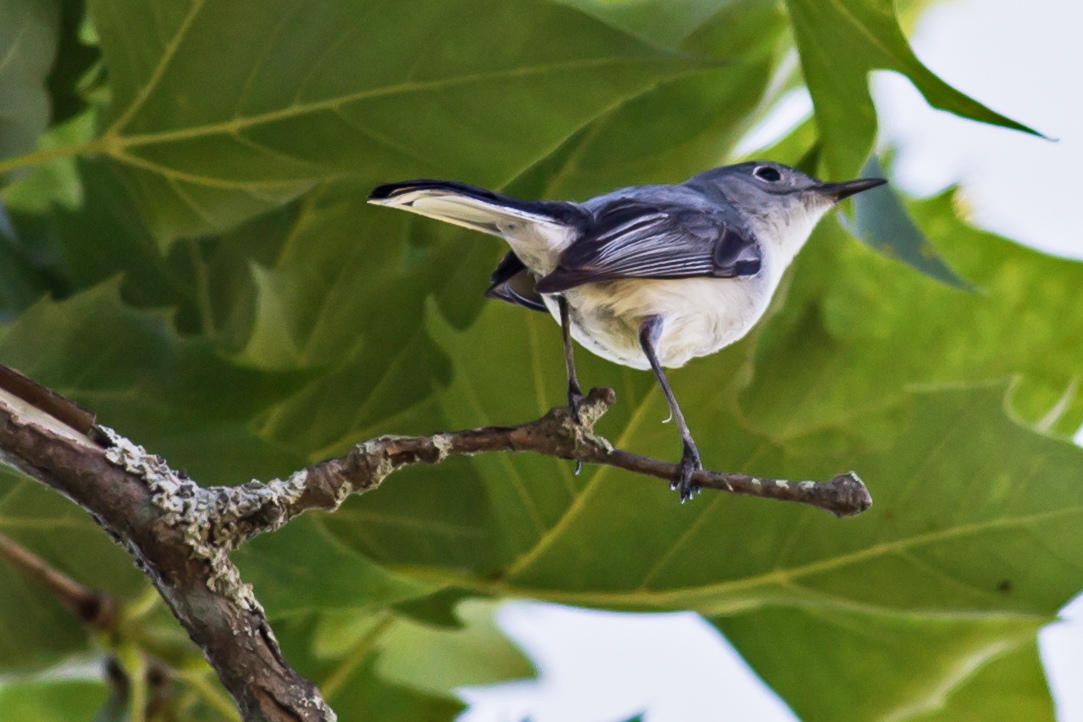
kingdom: Animalia
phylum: Chordata
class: Aves
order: Passeriformes
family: Polioptilidae
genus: Polioptila
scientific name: Polioptila caerulea
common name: Blue-gray gnatcatcher
